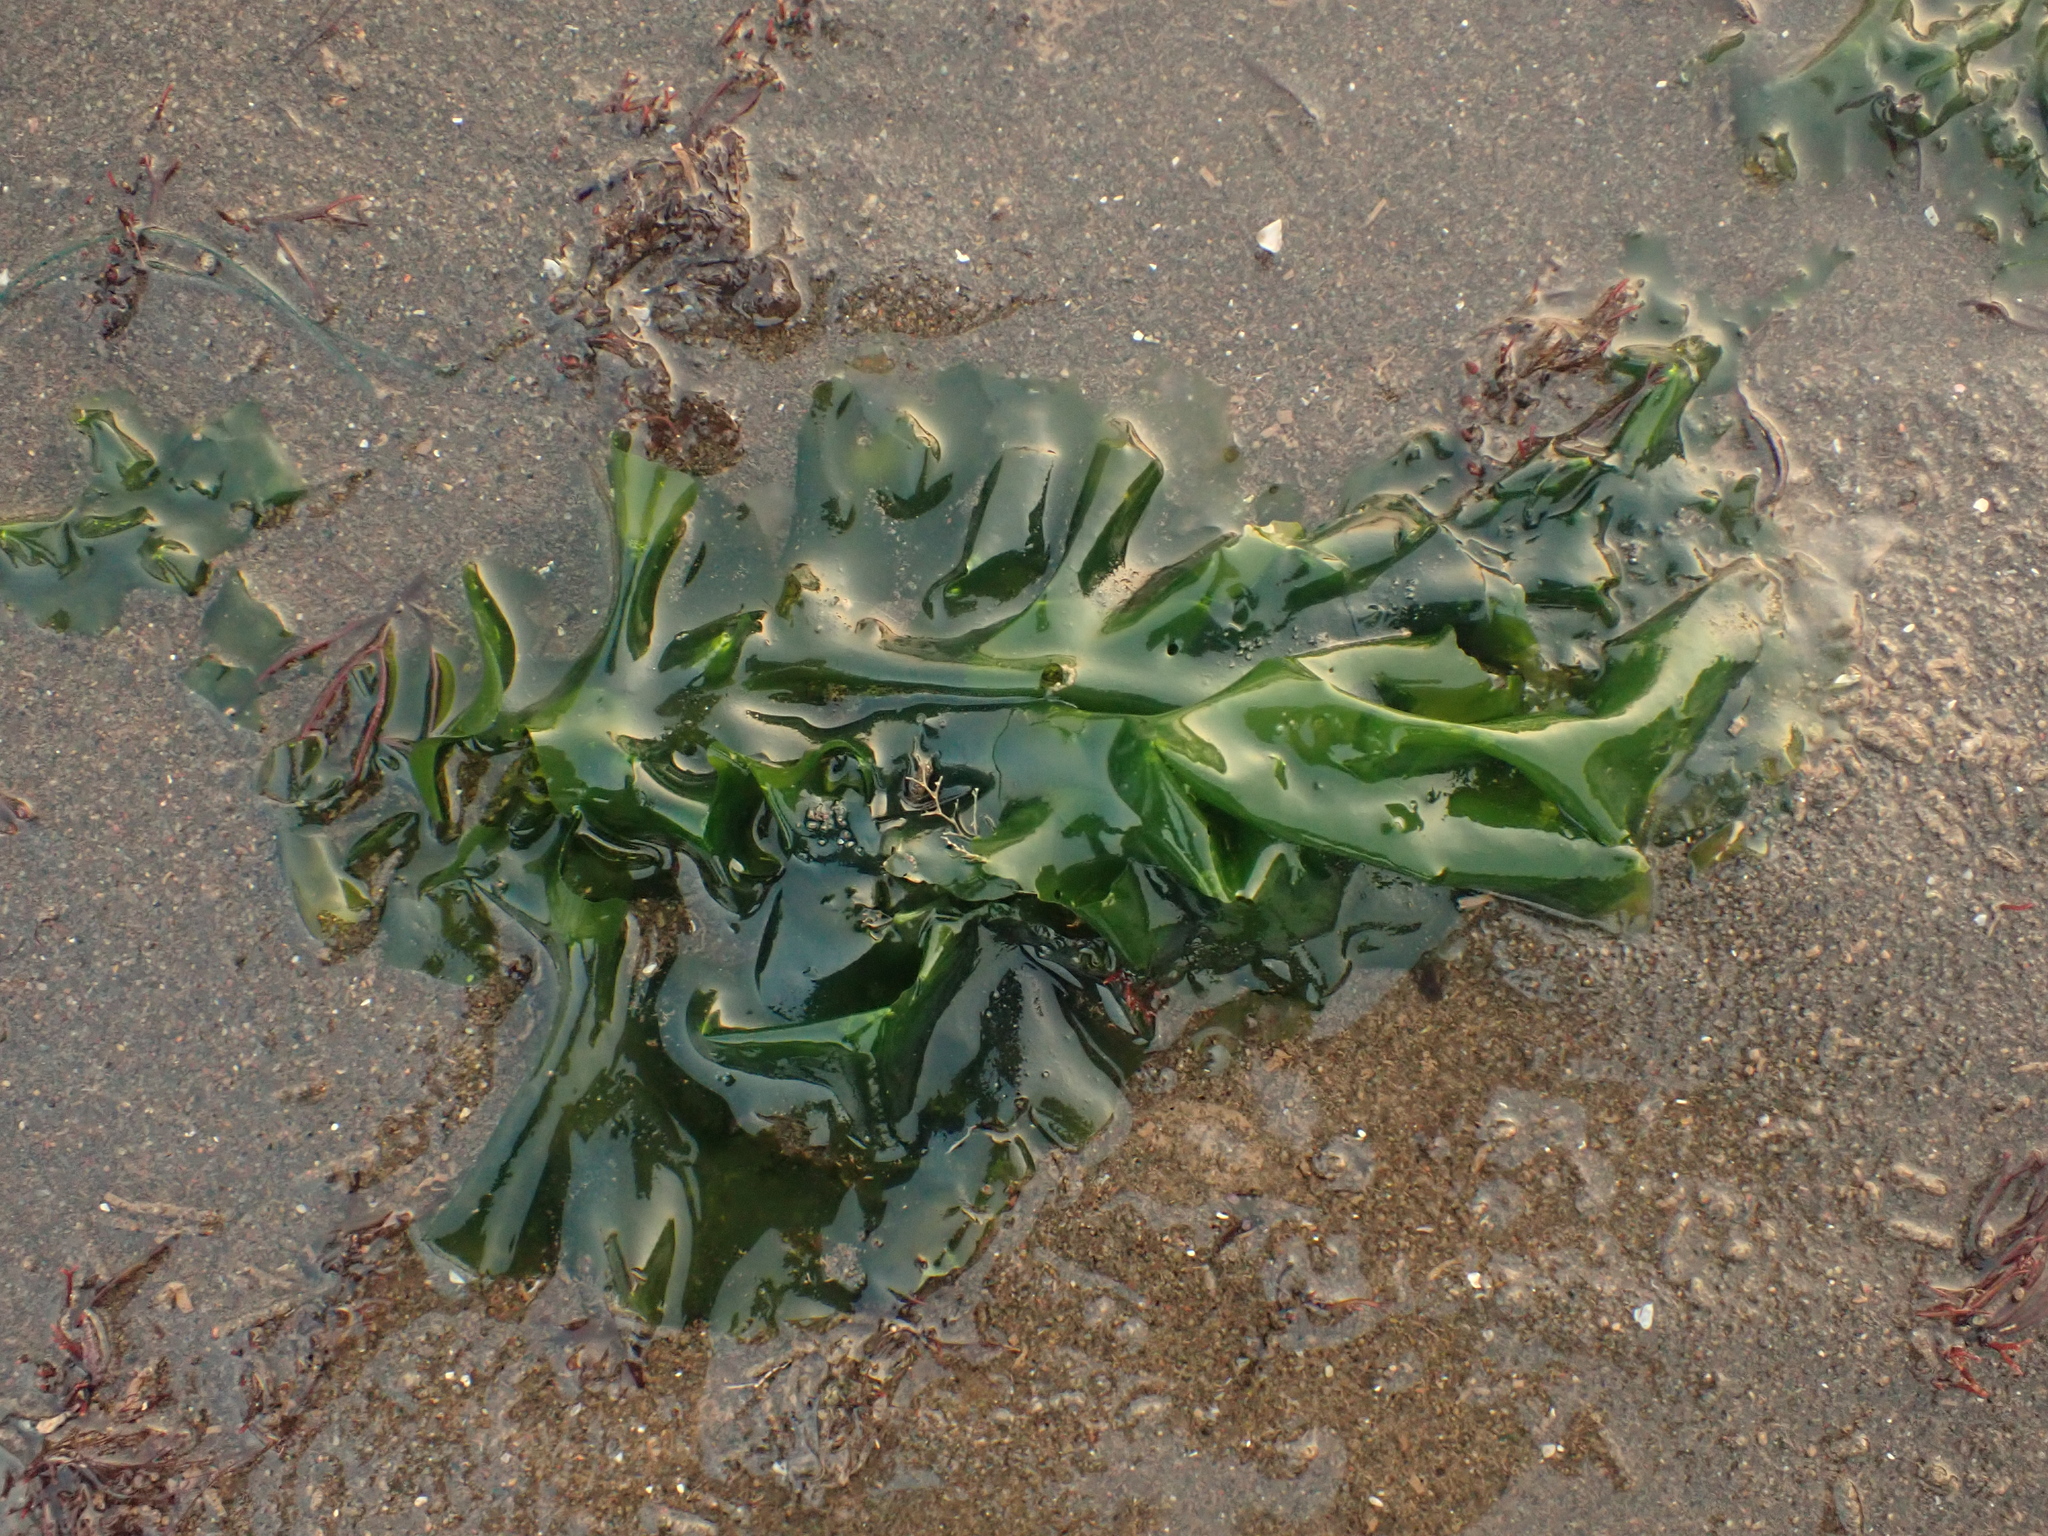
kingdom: Plantae
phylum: Chlorophyta
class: Ulvophyceae
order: Ulvales
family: Ulvaceae
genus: Ulva
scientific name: Ulva lactuca
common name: Sea lettuce
